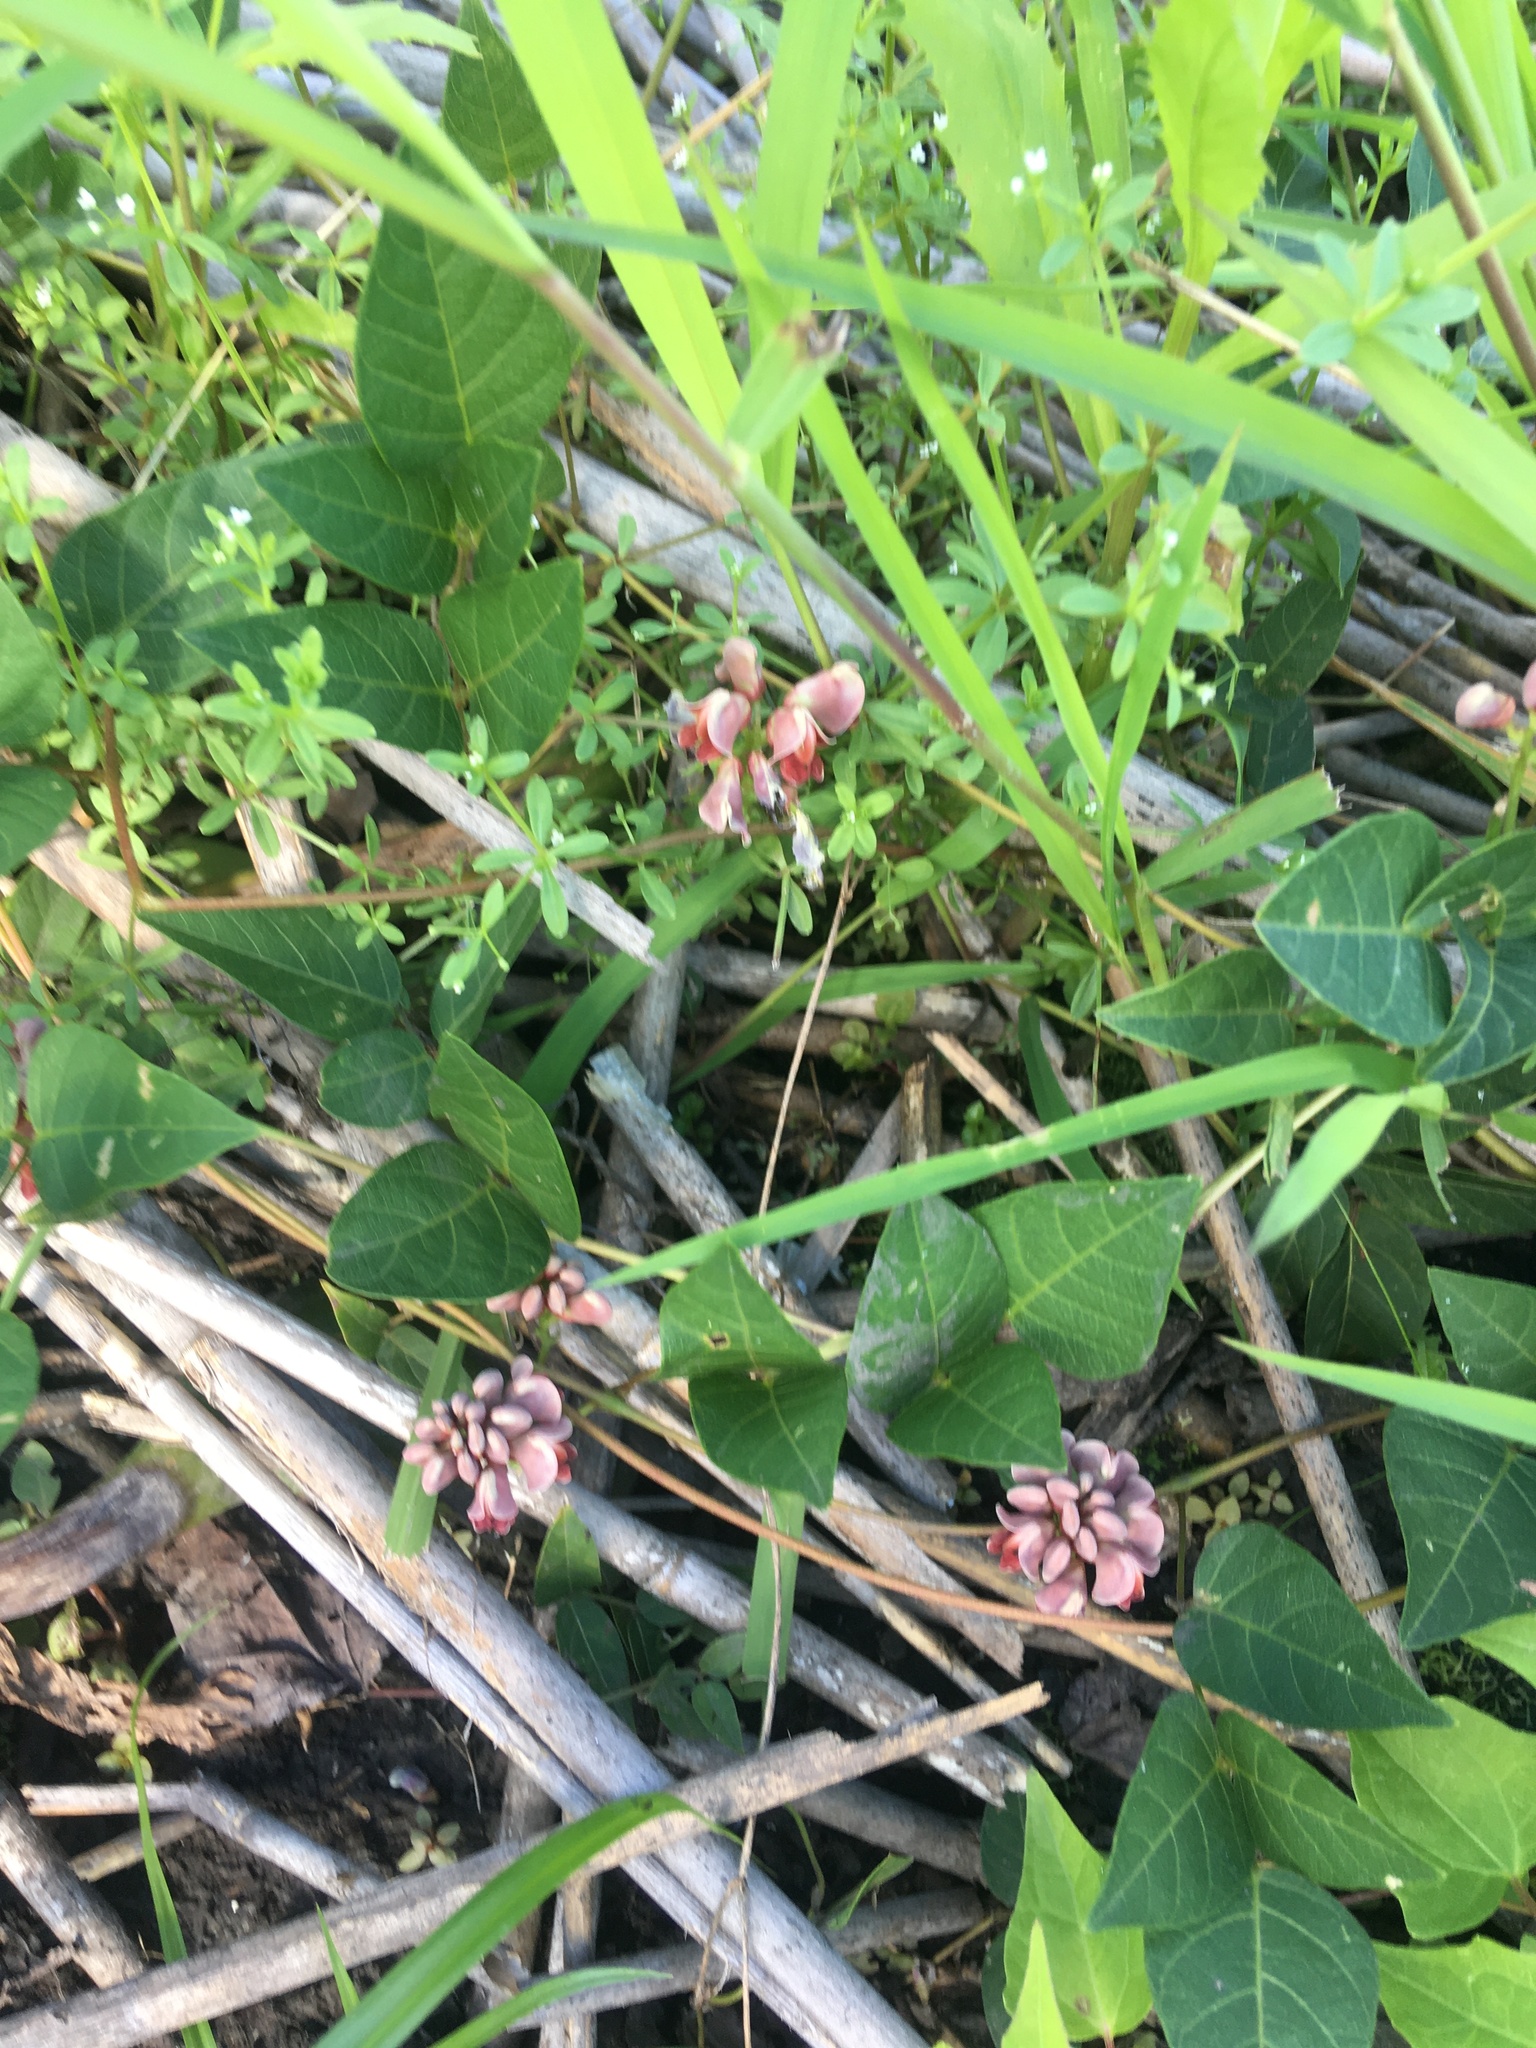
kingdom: Plantae
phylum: Tracheophyta
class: Magnoliopsida
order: Fabales
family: Fabaceae
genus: Apios
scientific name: Apios americana
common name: American potato-bean
